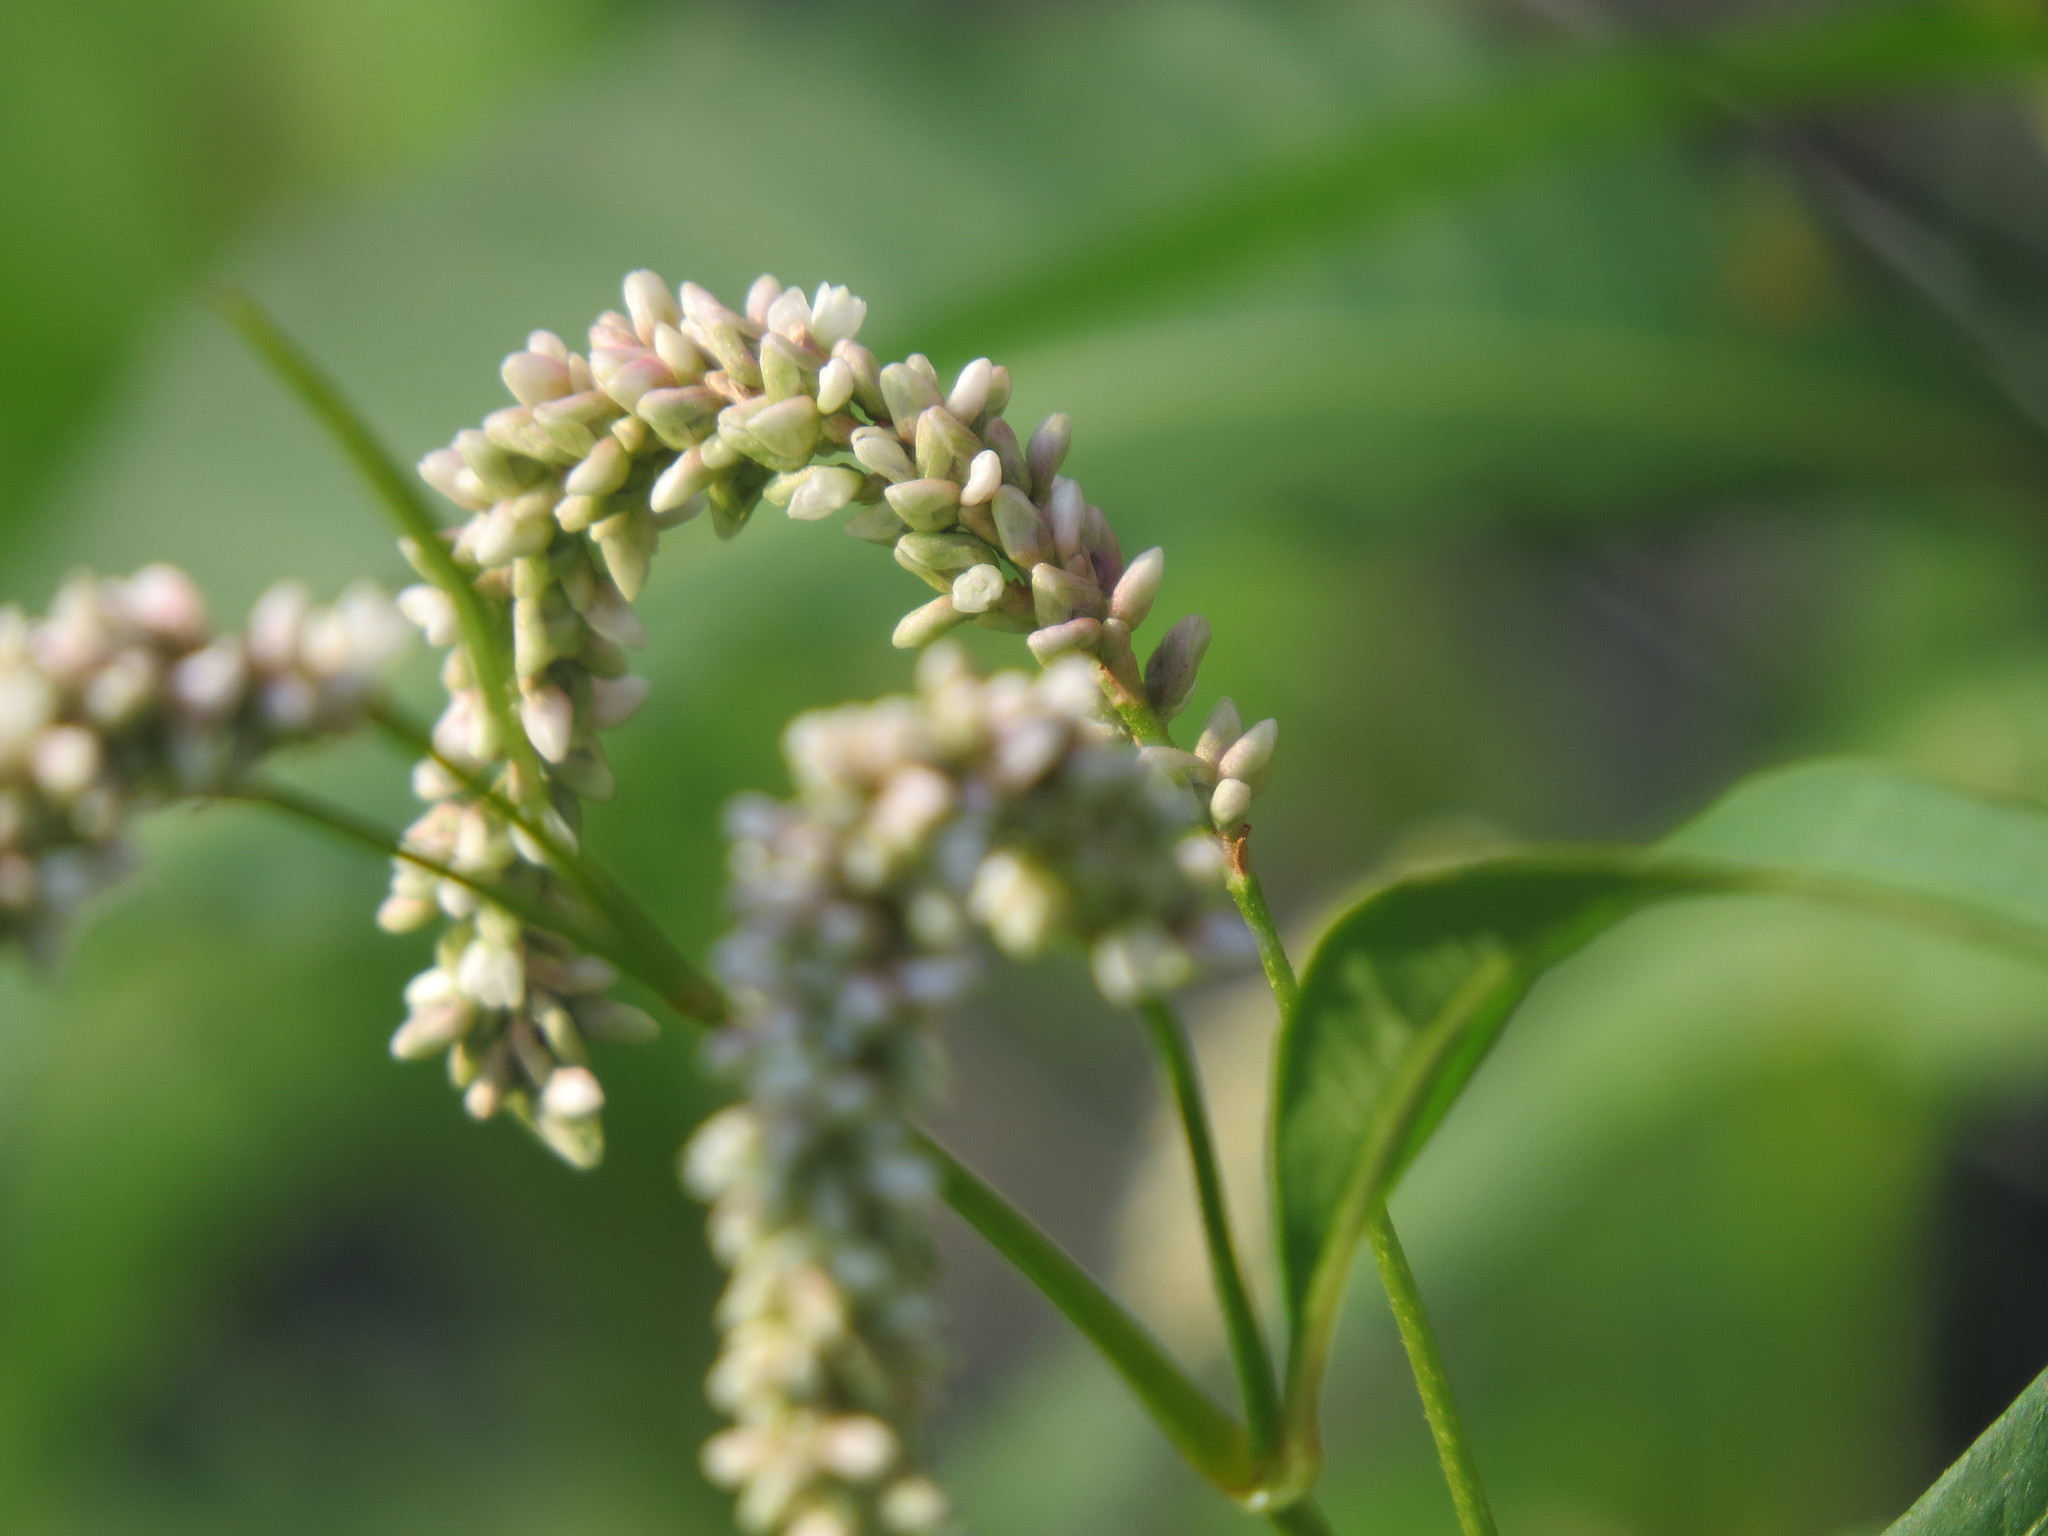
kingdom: Plantae
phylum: Tracheophyta
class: Magnoliopsida
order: Caryophyllales
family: Polygonaceae
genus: Persicaria
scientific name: Persicaria lapathifolia
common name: Curlytop knotweed
